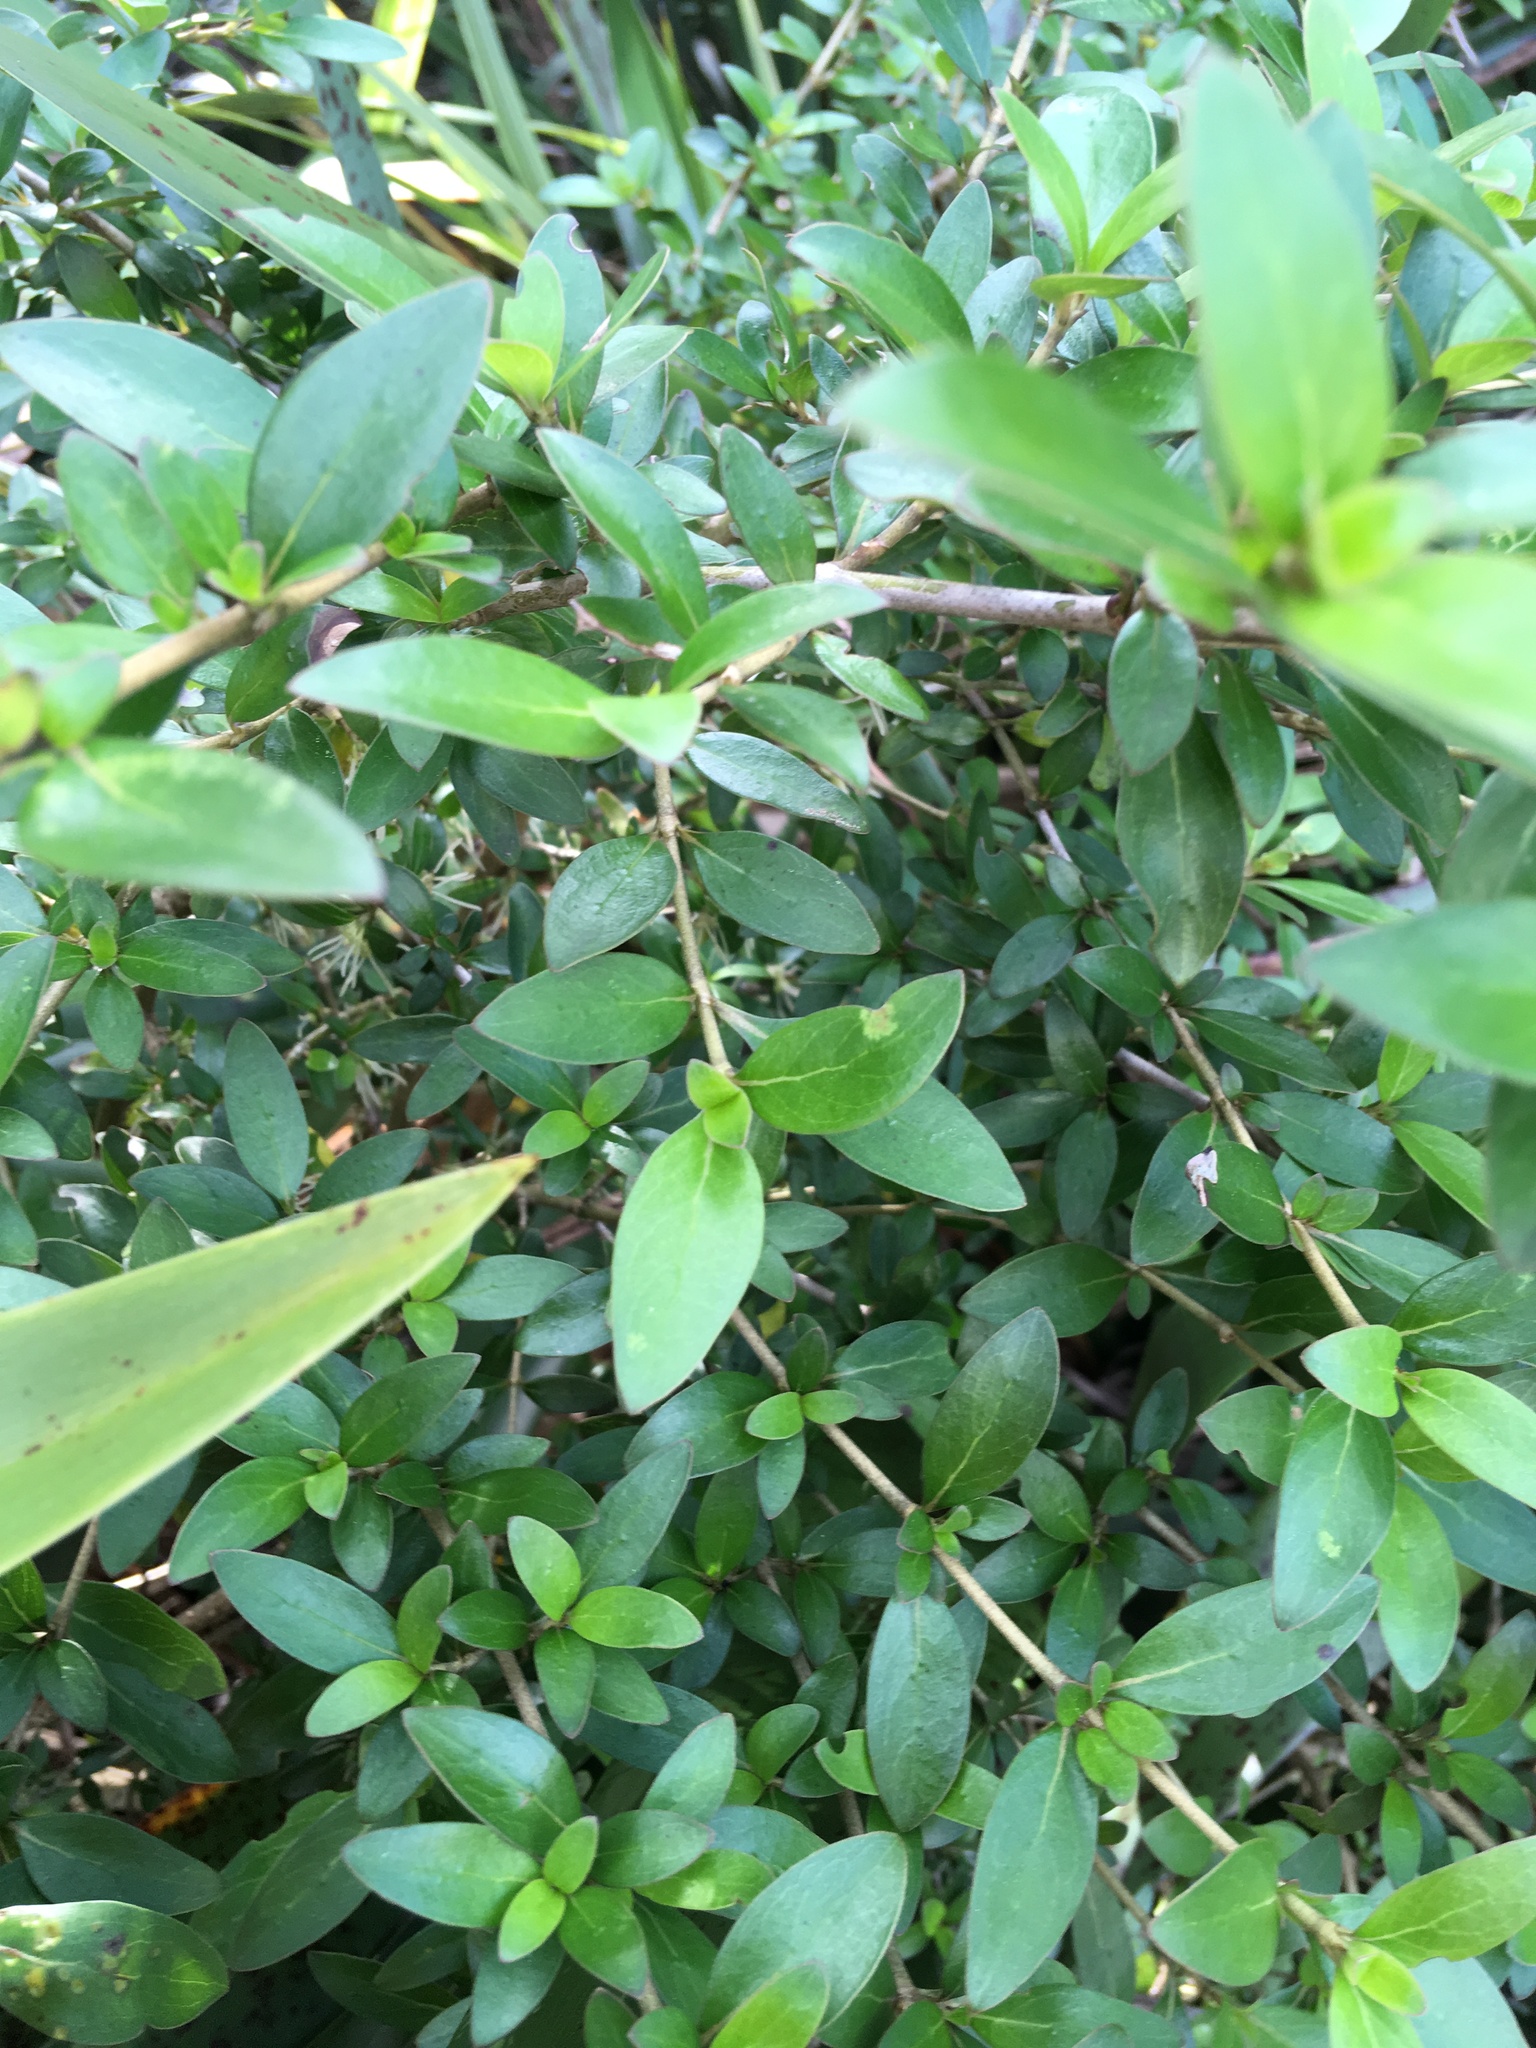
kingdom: Plantae
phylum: Tracheophyta
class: Magnoliopsida
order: Gentianales
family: Rubiaceae
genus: Coprosma
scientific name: Coprosma cunninghamii
